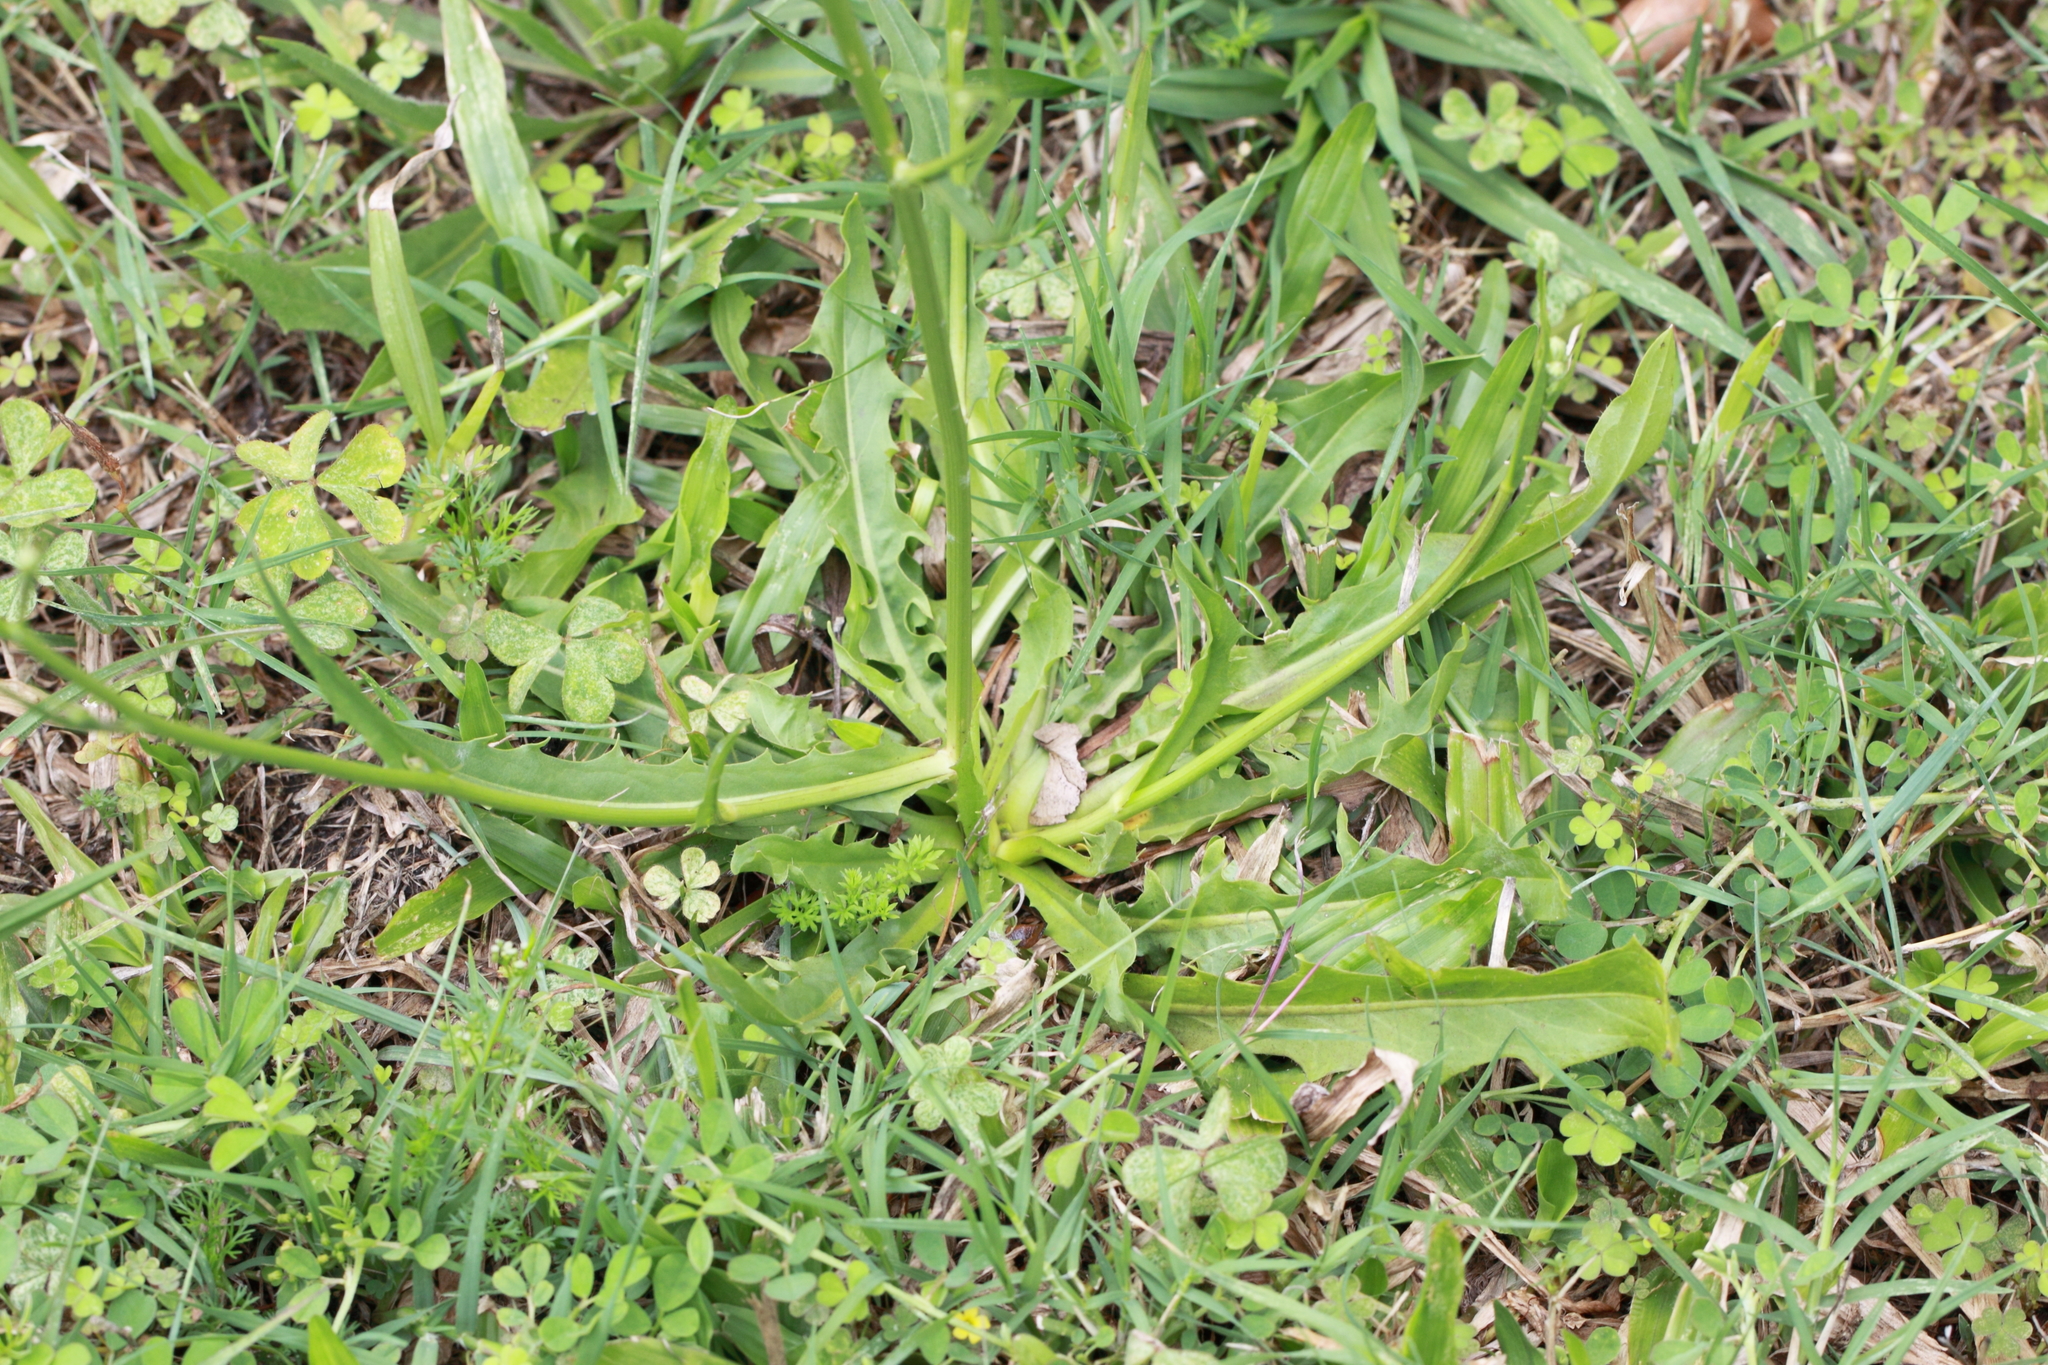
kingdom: Plantae
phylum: Tracheophyta
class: Magnoliopsida
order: Asterales
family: Asteraceae
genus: Hypochaeris
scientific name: Hypochaeris albiflora
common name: White flatweed
